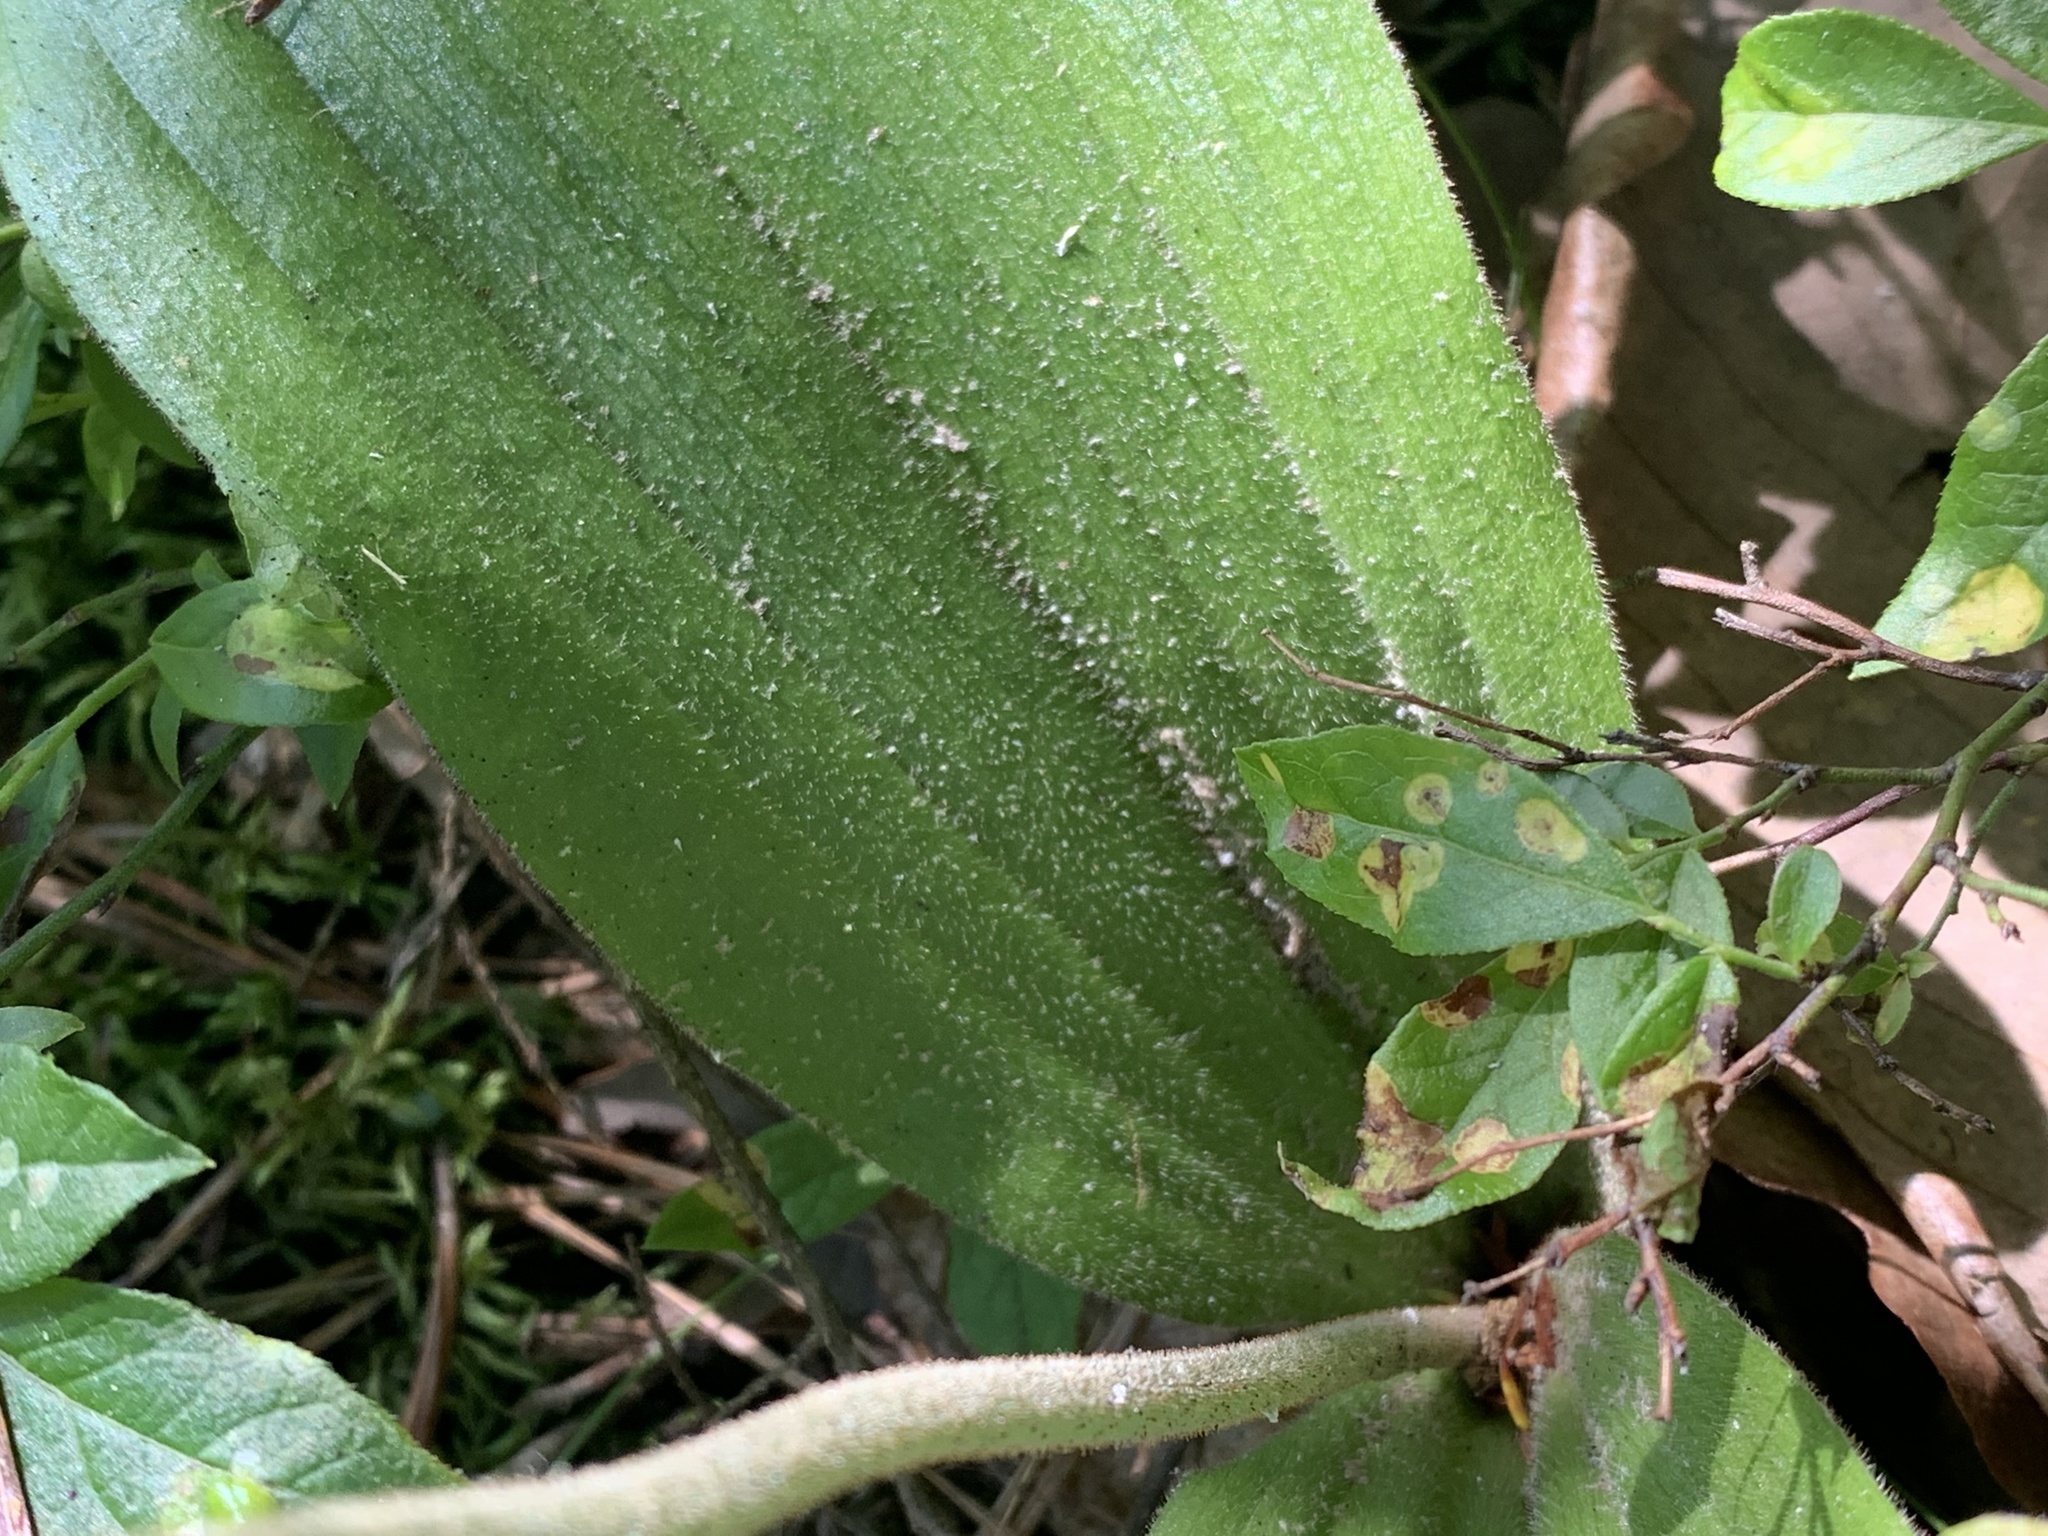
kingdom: Plantae
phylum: Tracheophyta
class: Liliopsida
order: Asparagales
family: Orchidaceae
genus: Cypripedium
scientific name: Cypripedium acaule
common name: Pink lady's-slipper
